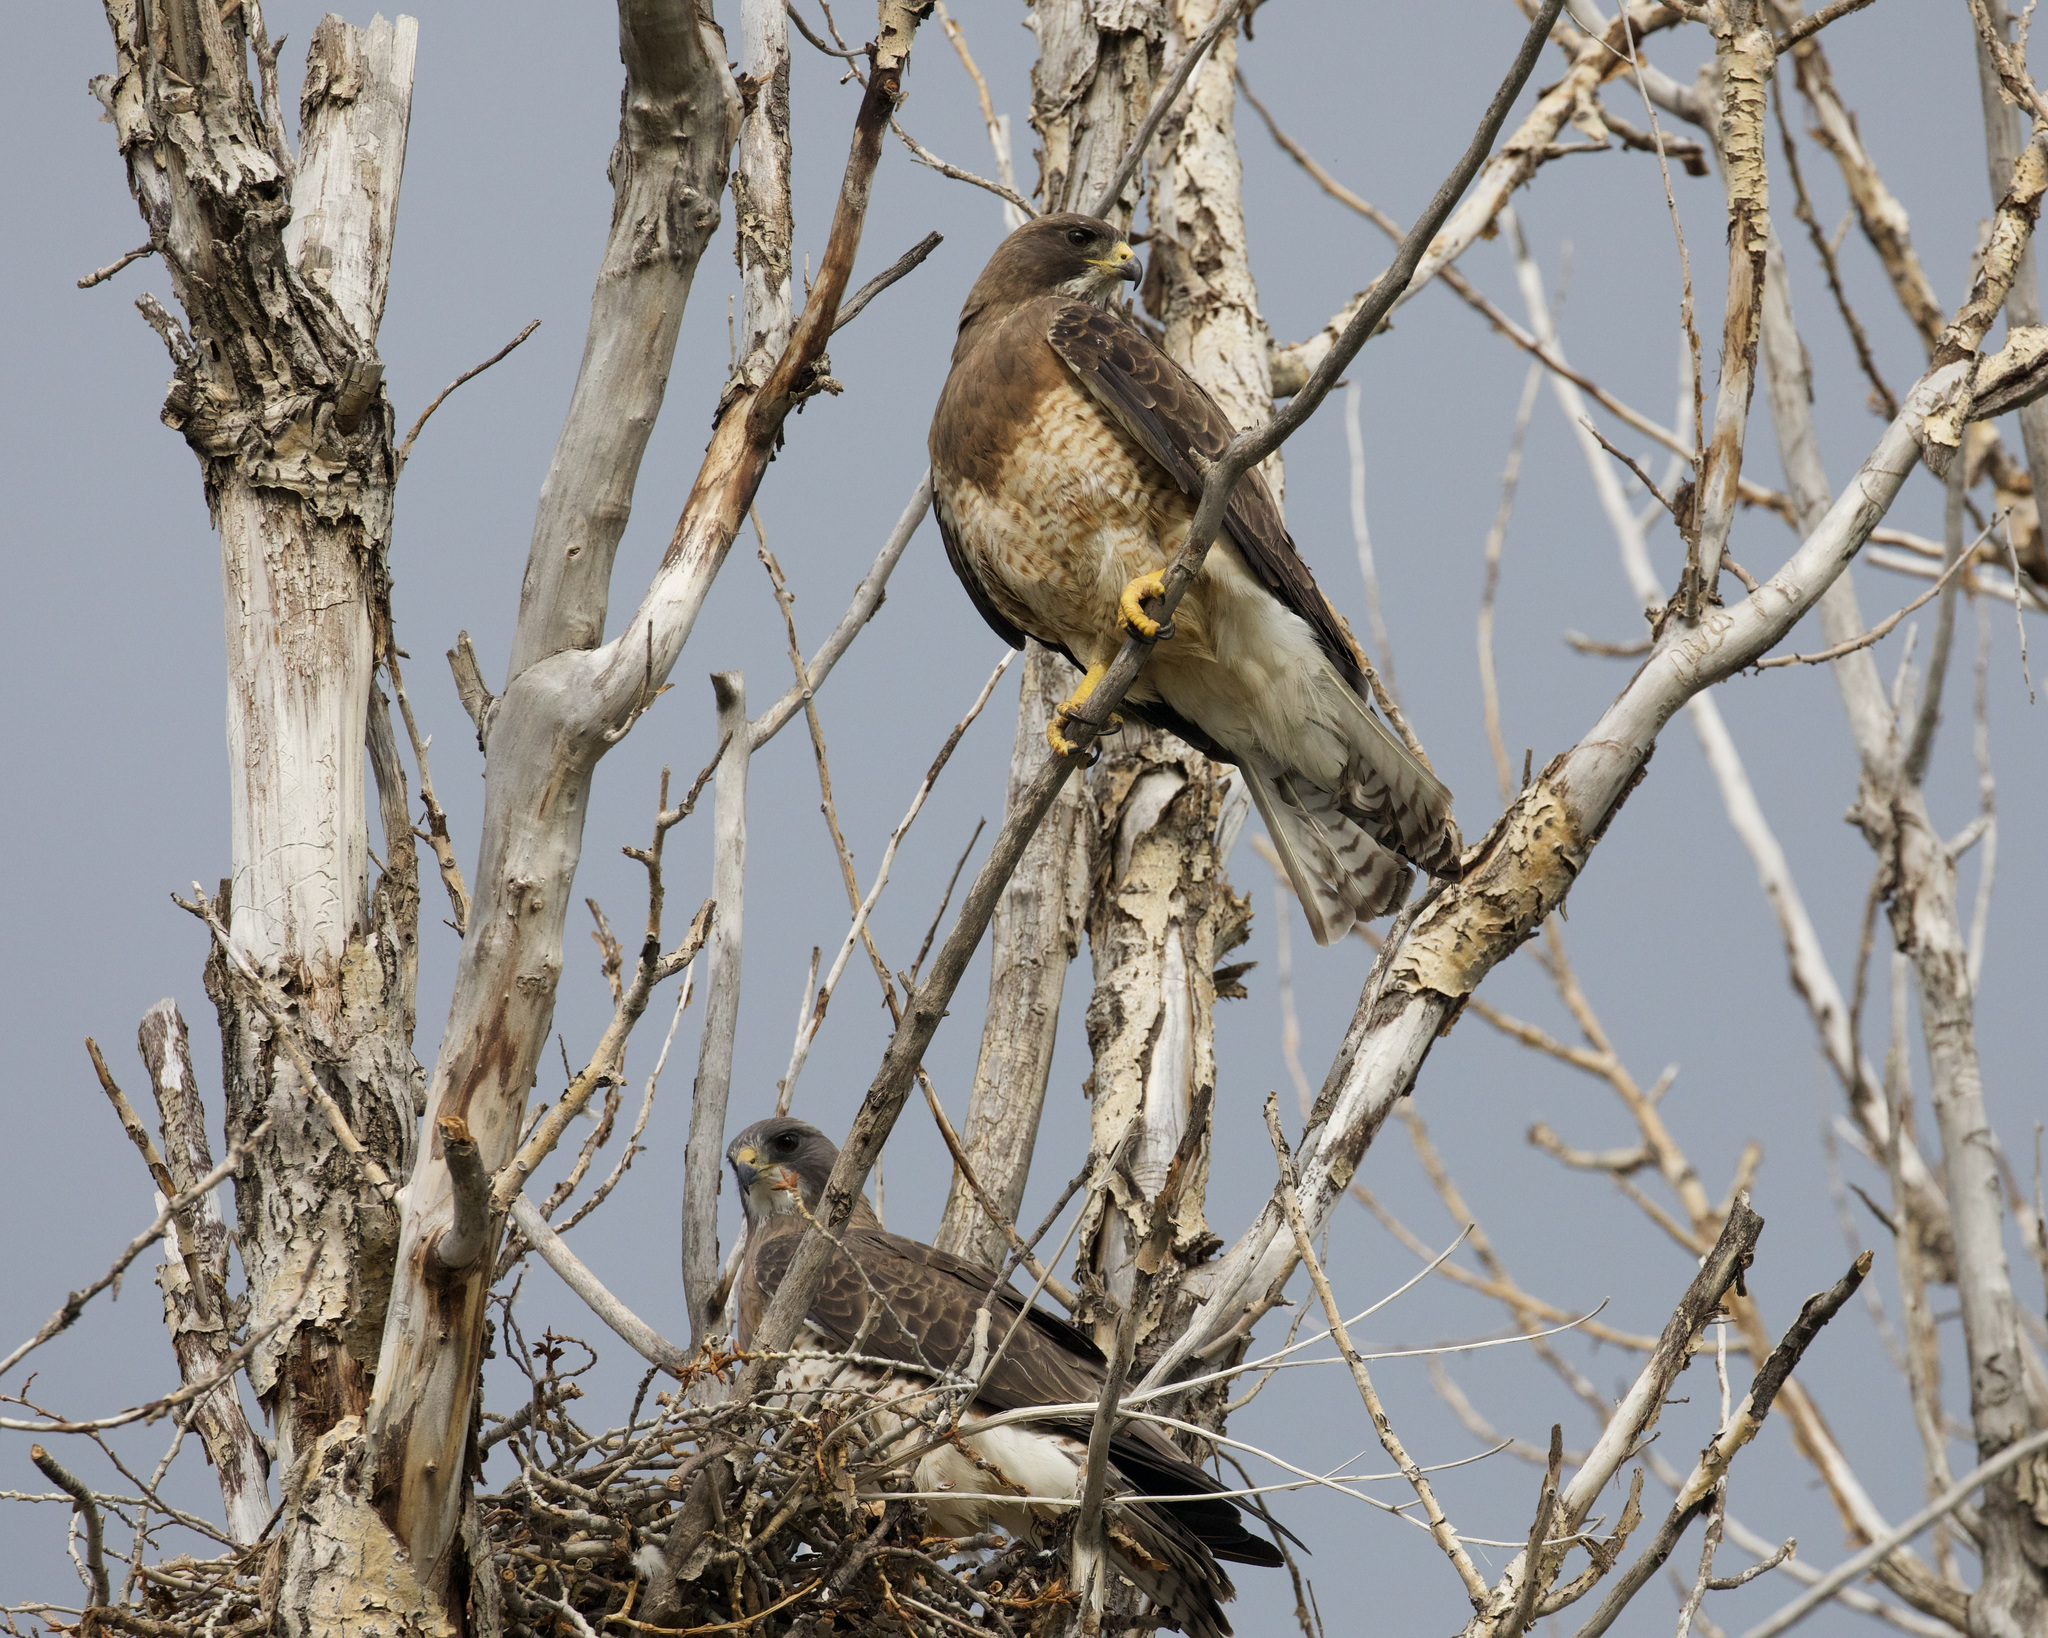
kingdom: Animalia
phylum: Chordata
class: Aves
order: Accipitriformes
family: Accipitridae
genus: Buteo
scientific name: Buteo swainsoni
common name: Swainson's hawk
